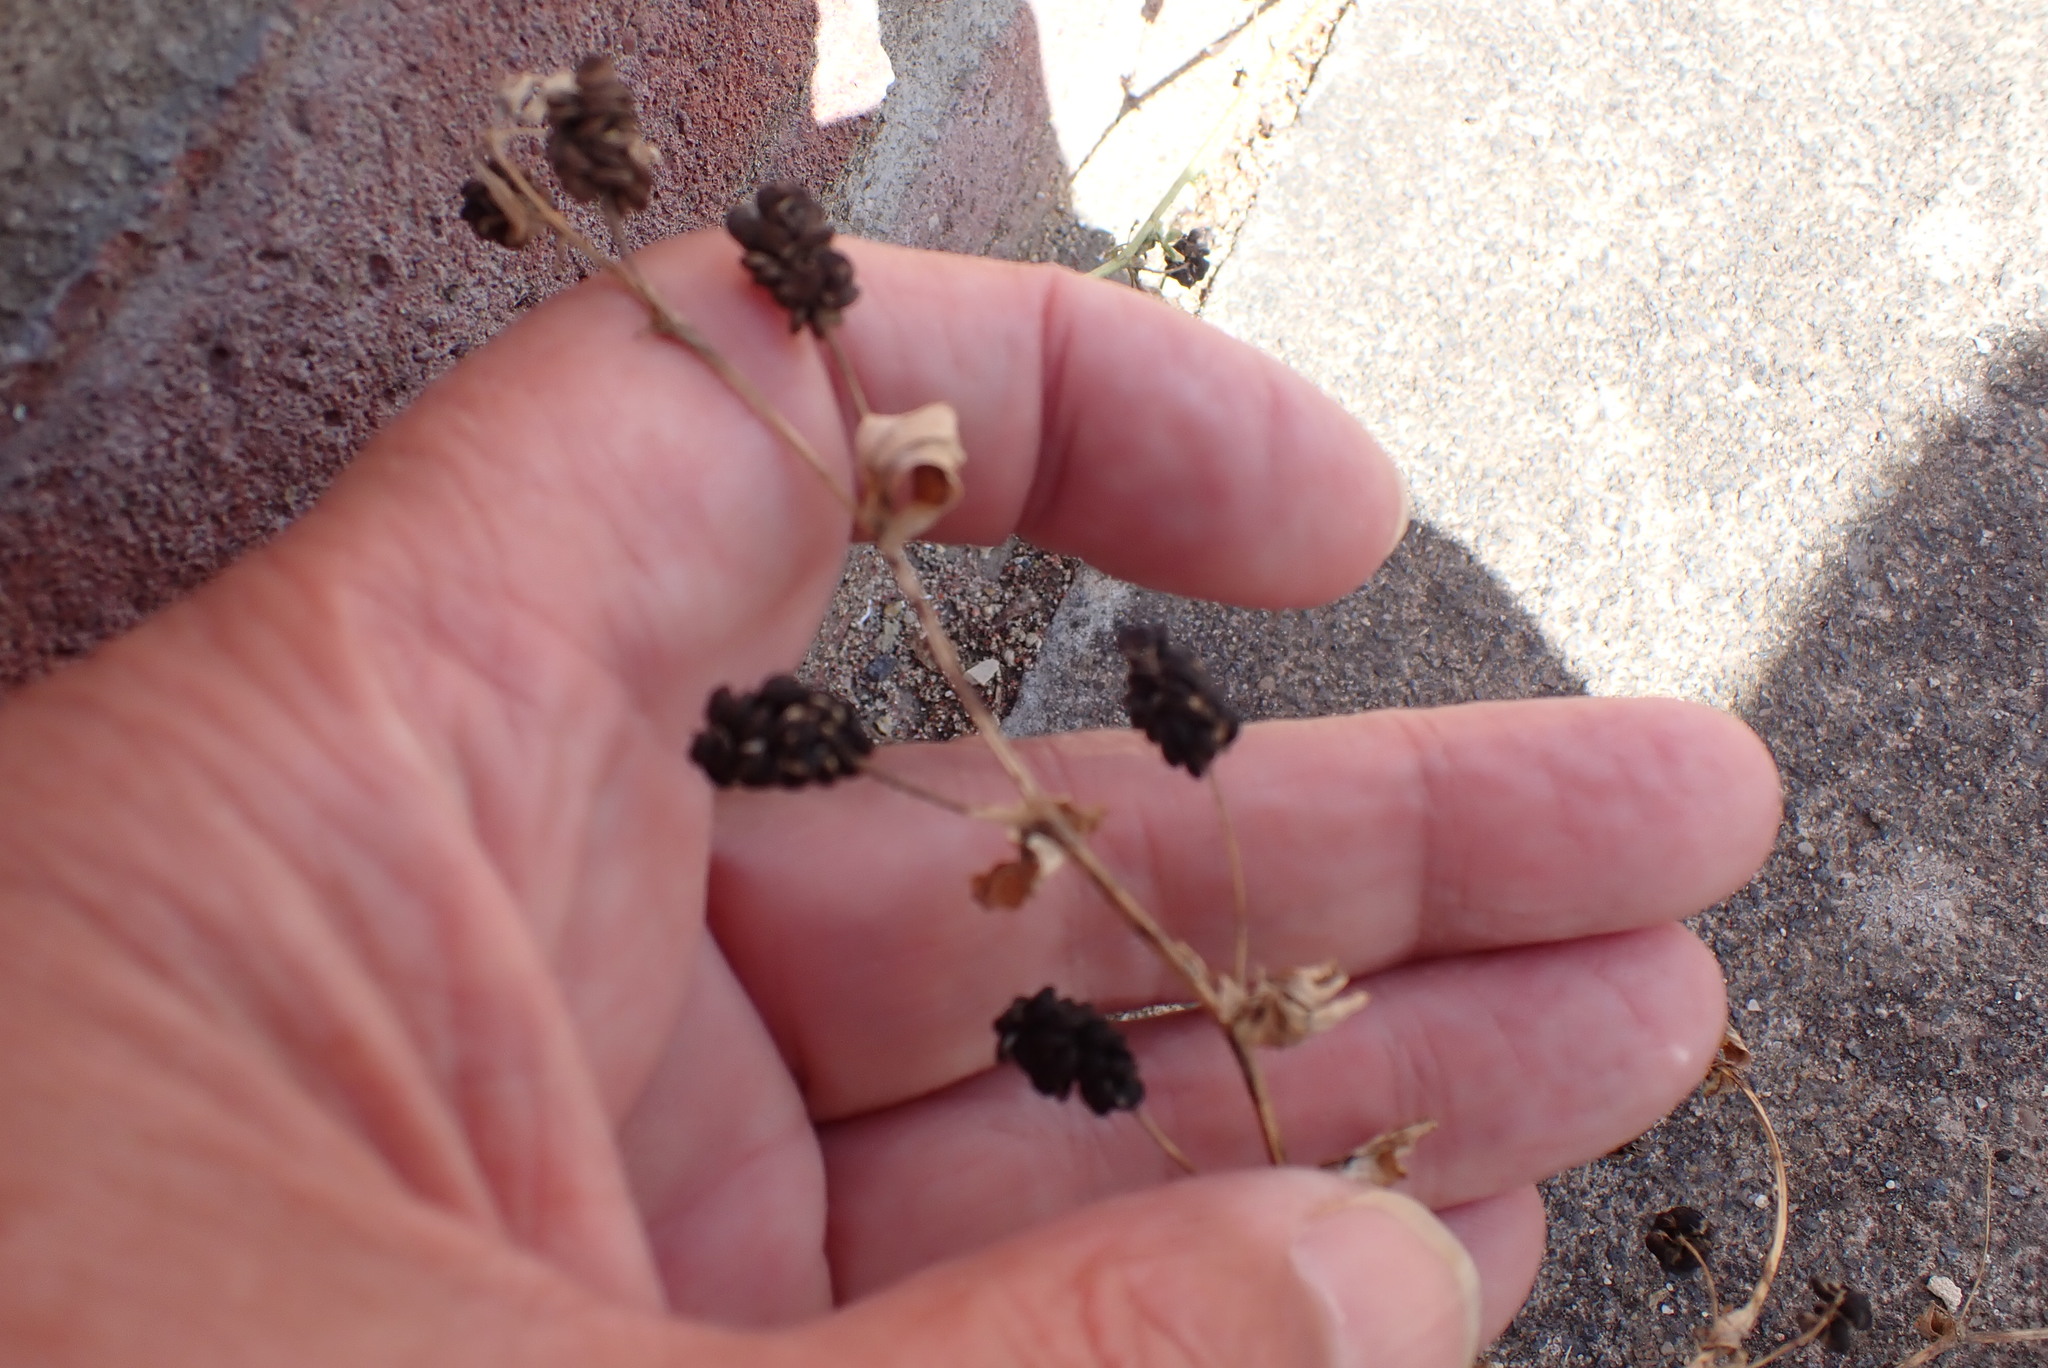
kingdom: Plantae
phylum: Tracheophyta
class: Magnoliopsida
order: Fabales
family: Fabaceae
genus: Medicago
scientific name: Medicago lupulina
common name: Black medick
